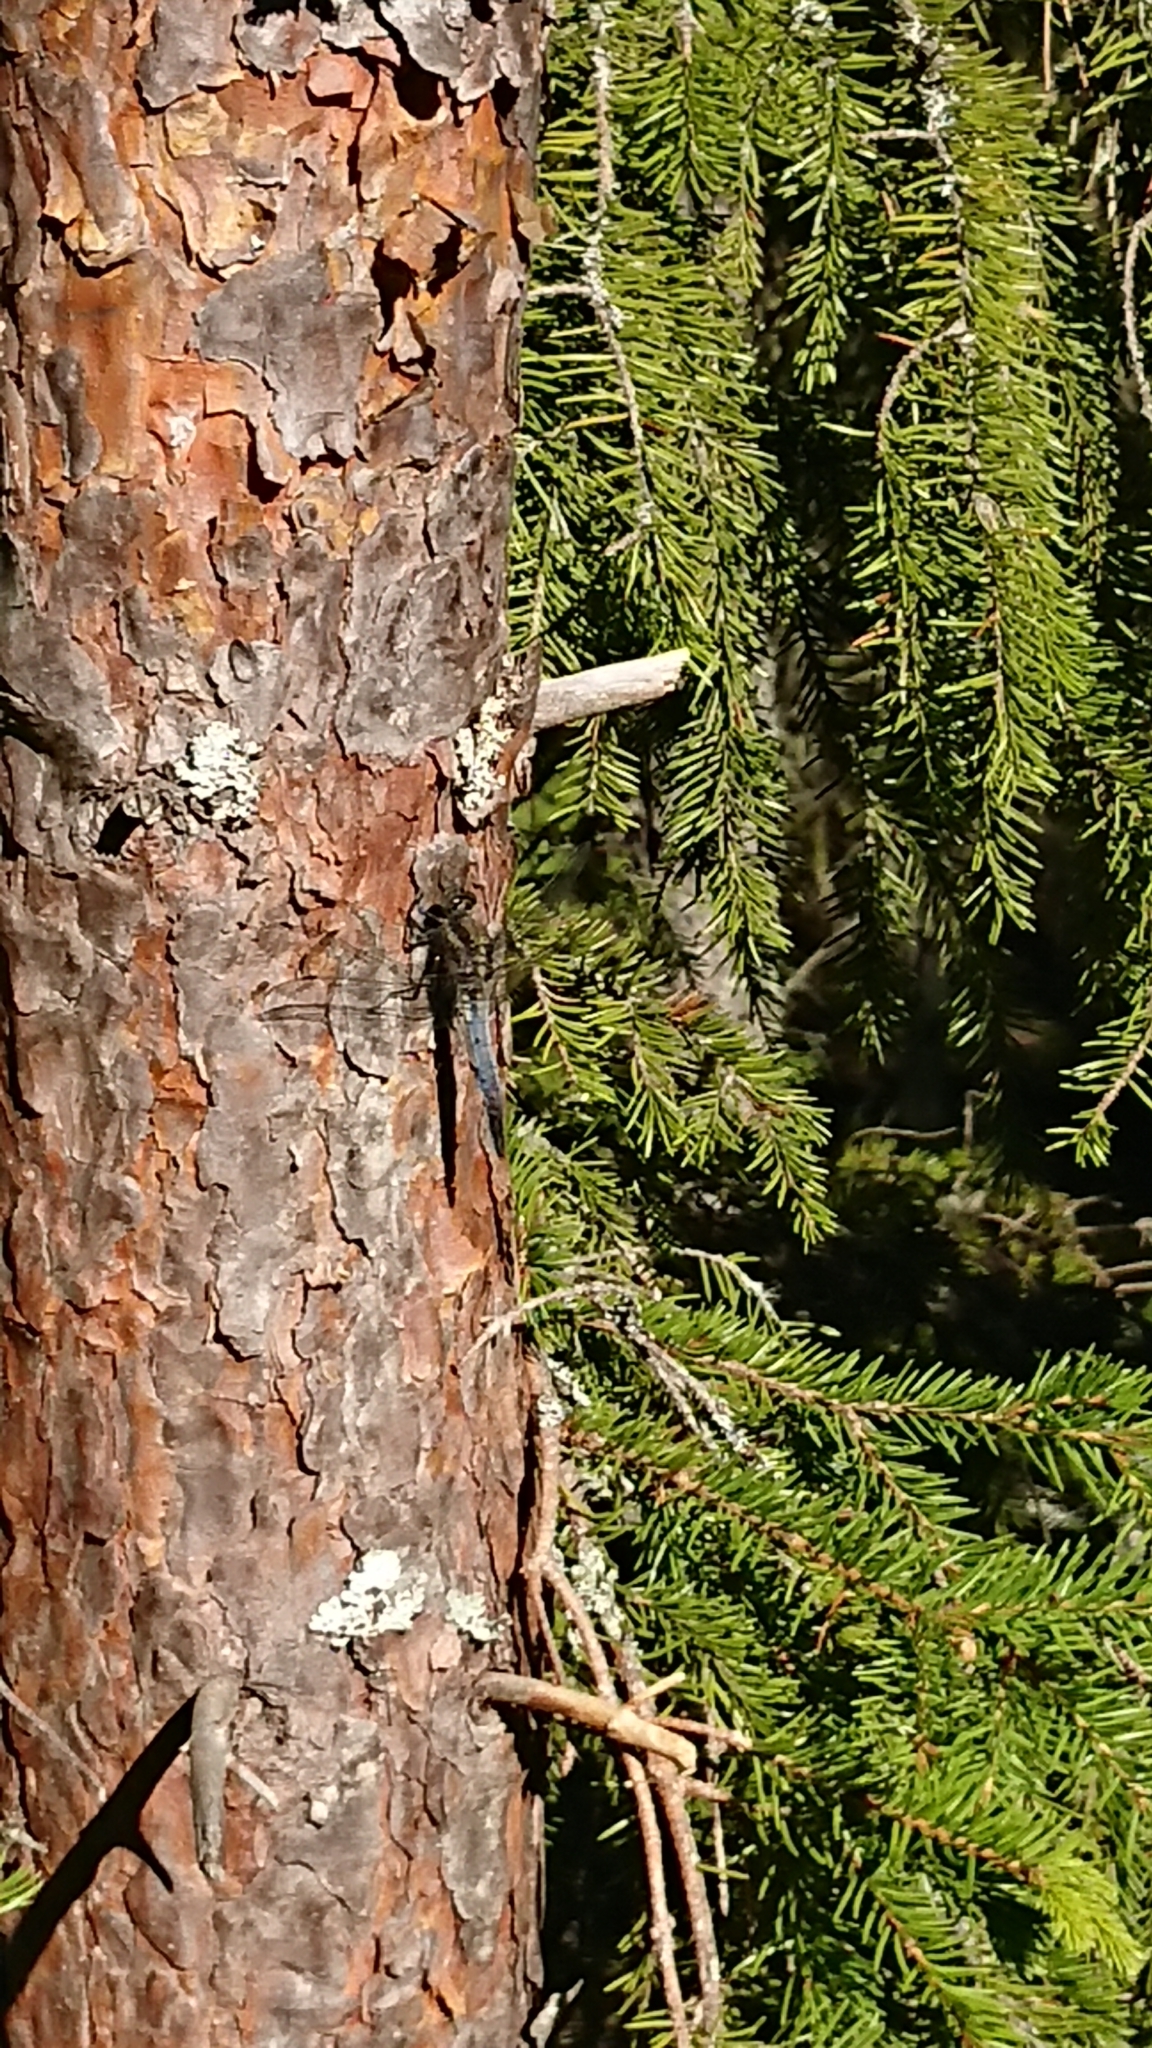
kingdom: Animalia
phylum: Arthropoda
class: Insecta
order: Odonata
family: Libellulidae
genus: Orthetrum
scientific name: Orthetrum cancellatum
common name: Black-tailed skimmer
